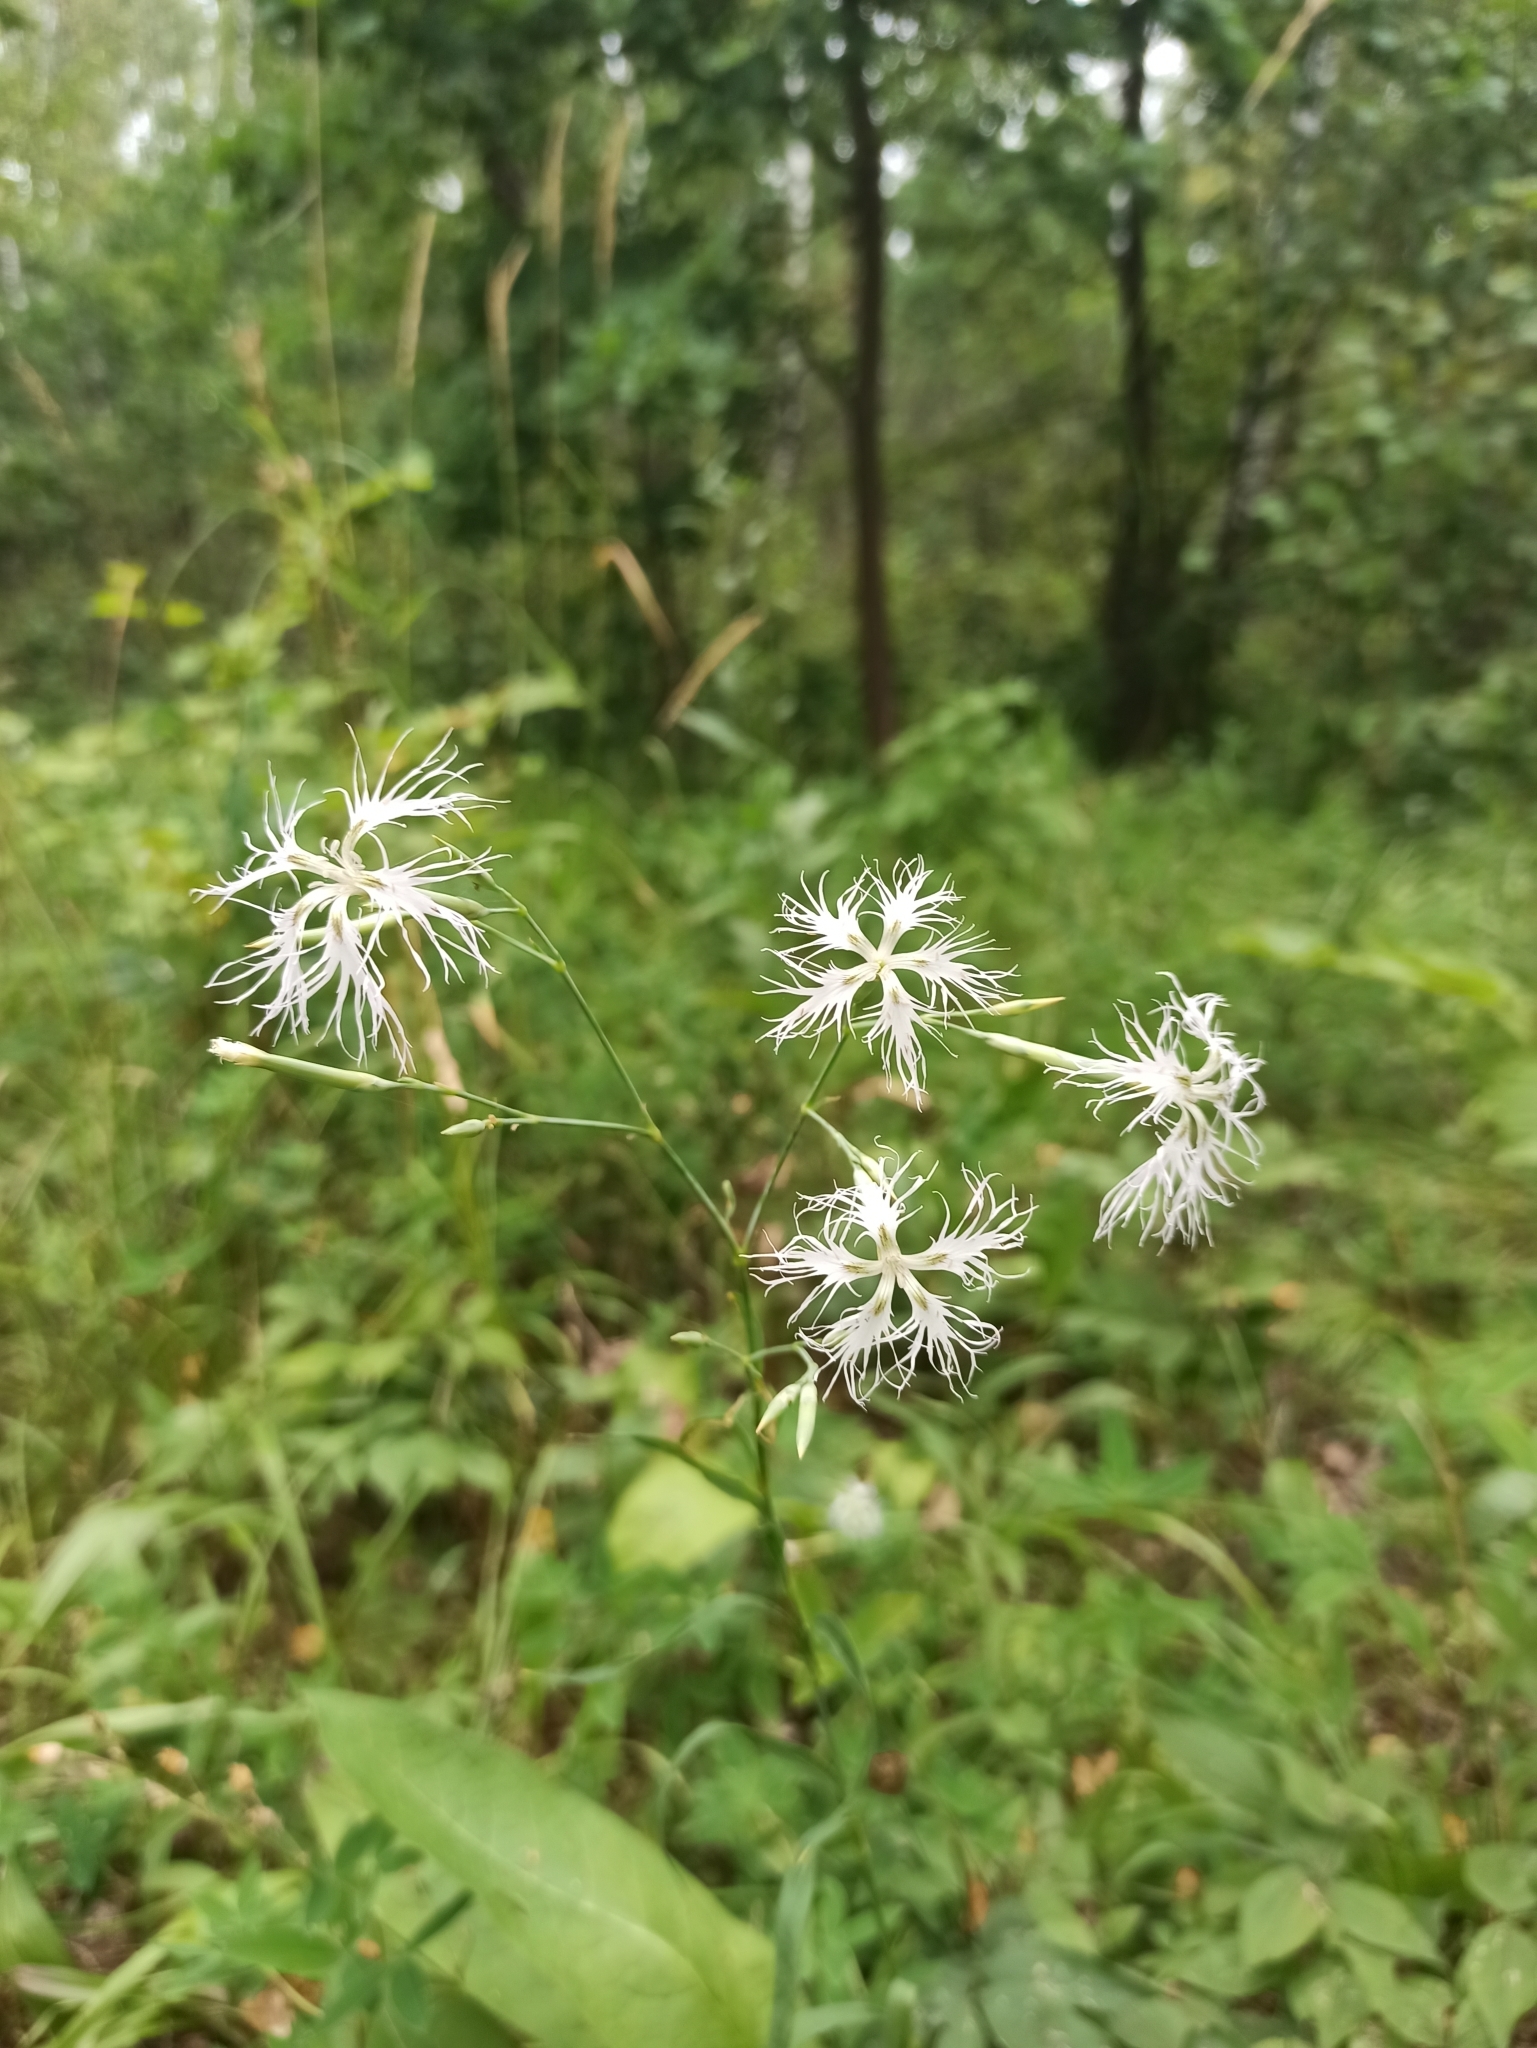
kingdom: Plantae
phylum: Tracheophyta
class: Magnoliopsida
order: Caryophyllales
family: Caryophyllaceae
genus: Dianthus
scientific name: Dianthus superbus
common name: Fringed pink
